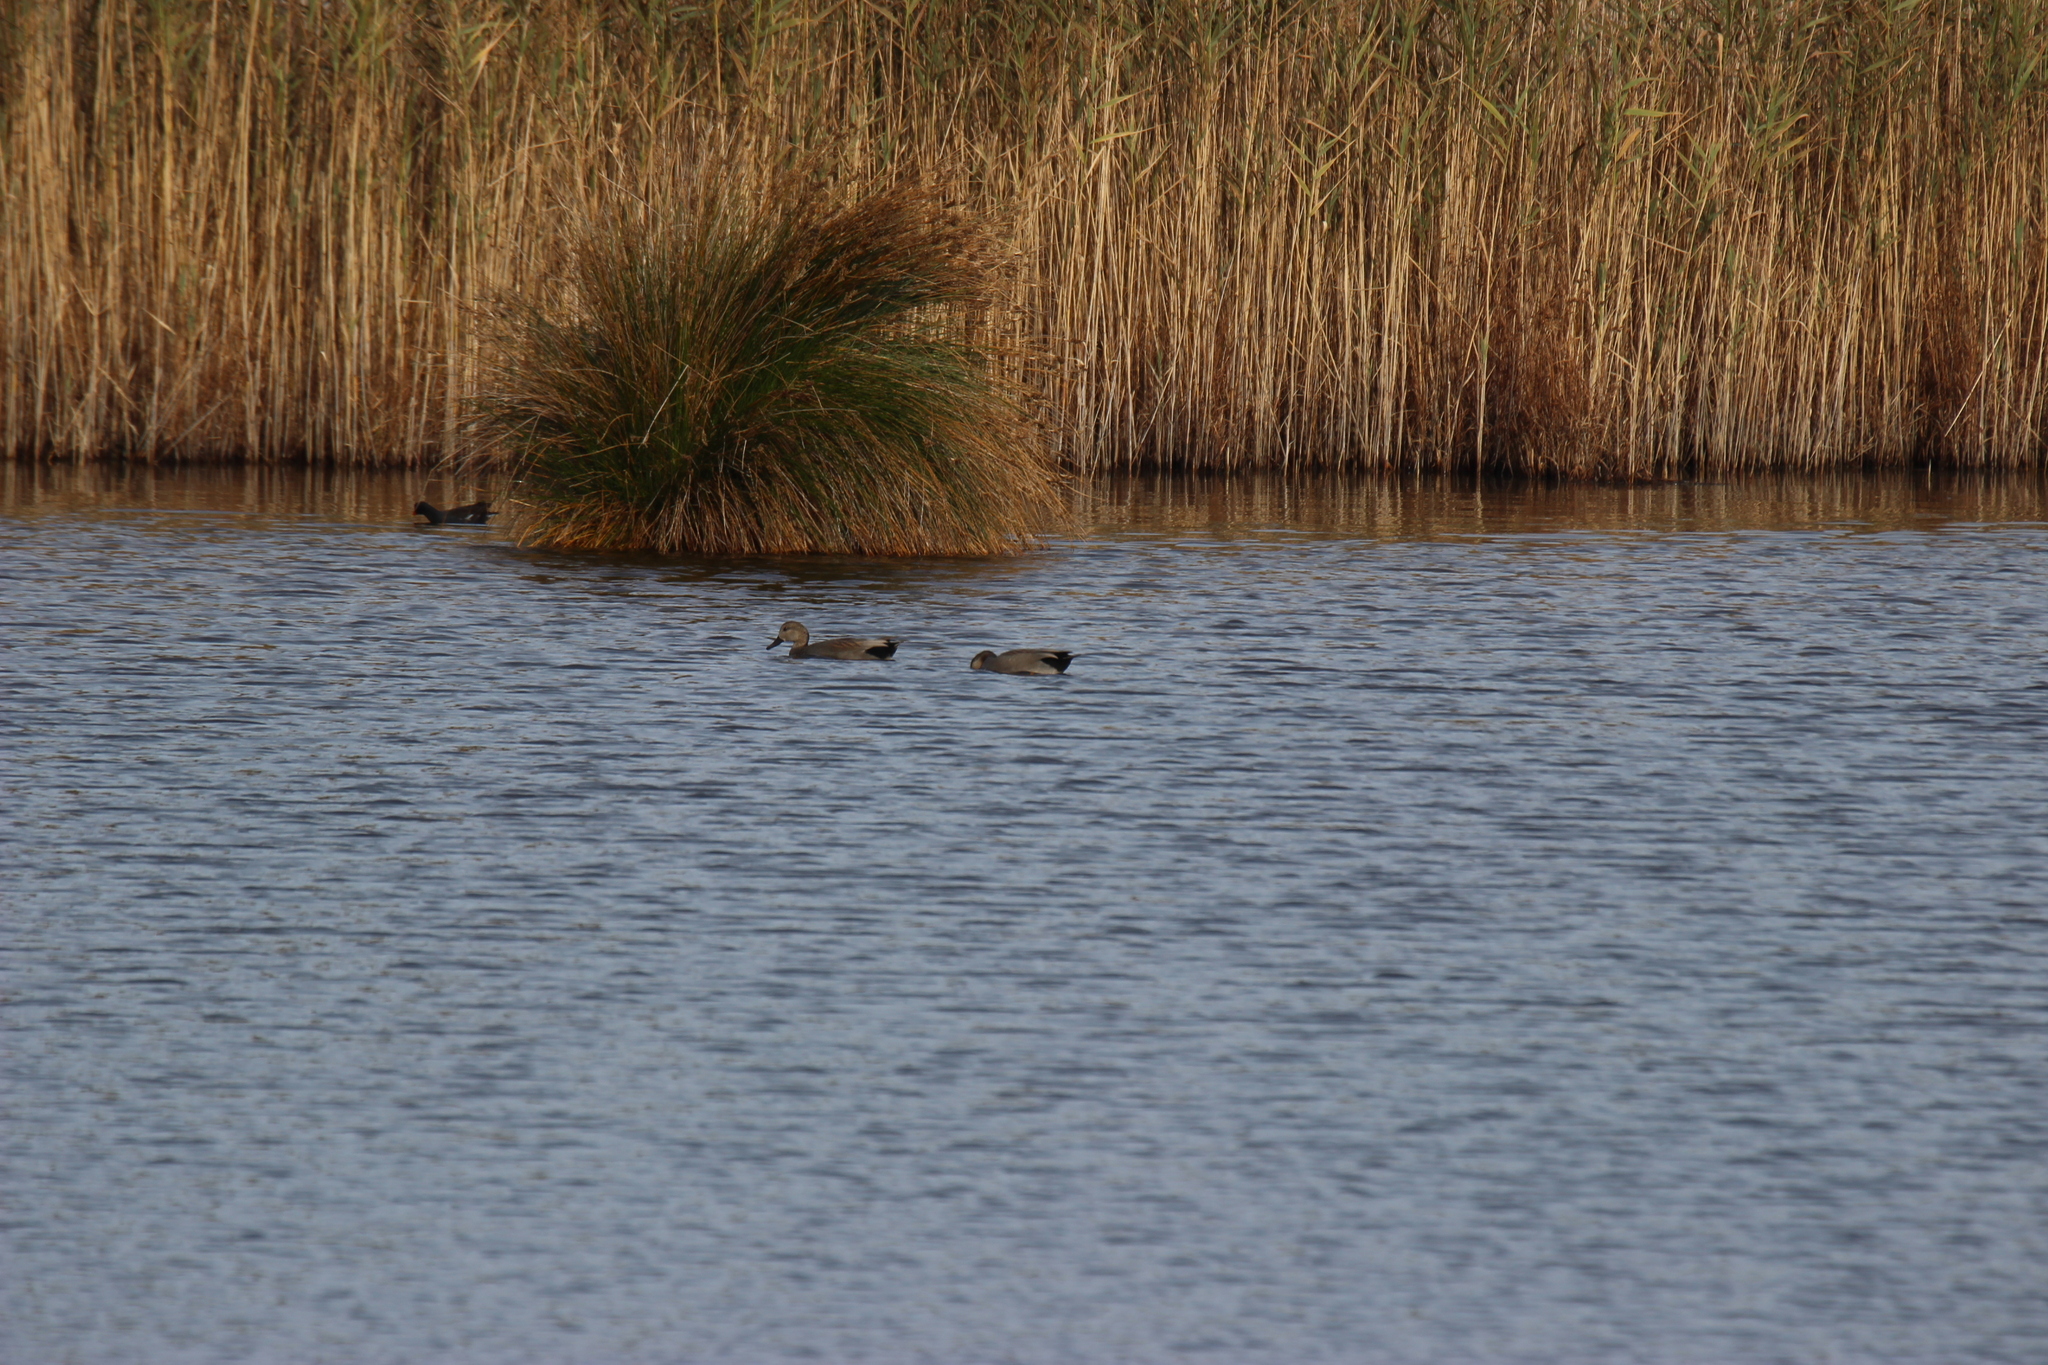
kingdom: Animalia
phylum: Chordata
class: Aves
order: Anseriformes
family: Anatidae
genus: Mareca
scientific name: Mareca strepera
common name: Gadwall
